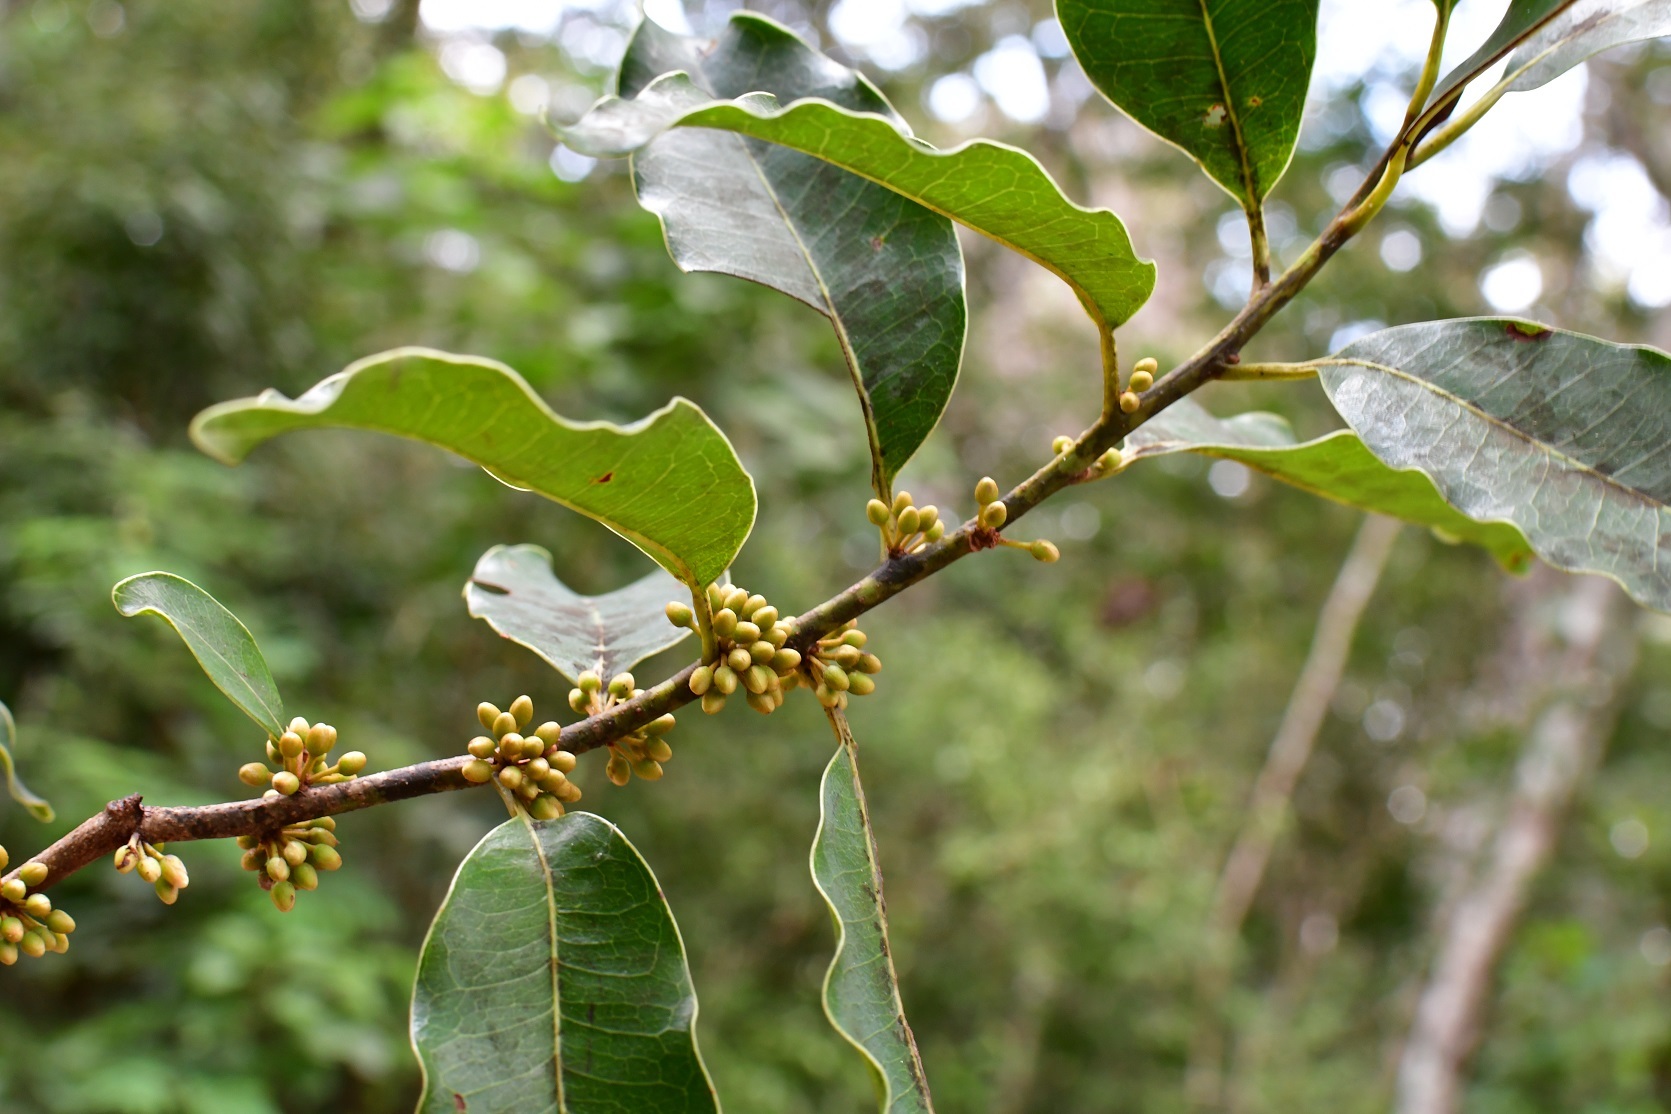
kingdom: Plantae
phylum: Tracheophyta
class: Magnoliopsida
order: Ericales
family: Sapotaceae
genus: Sideroxylon
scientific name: Sideroxylon salicifolium
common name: White bully
